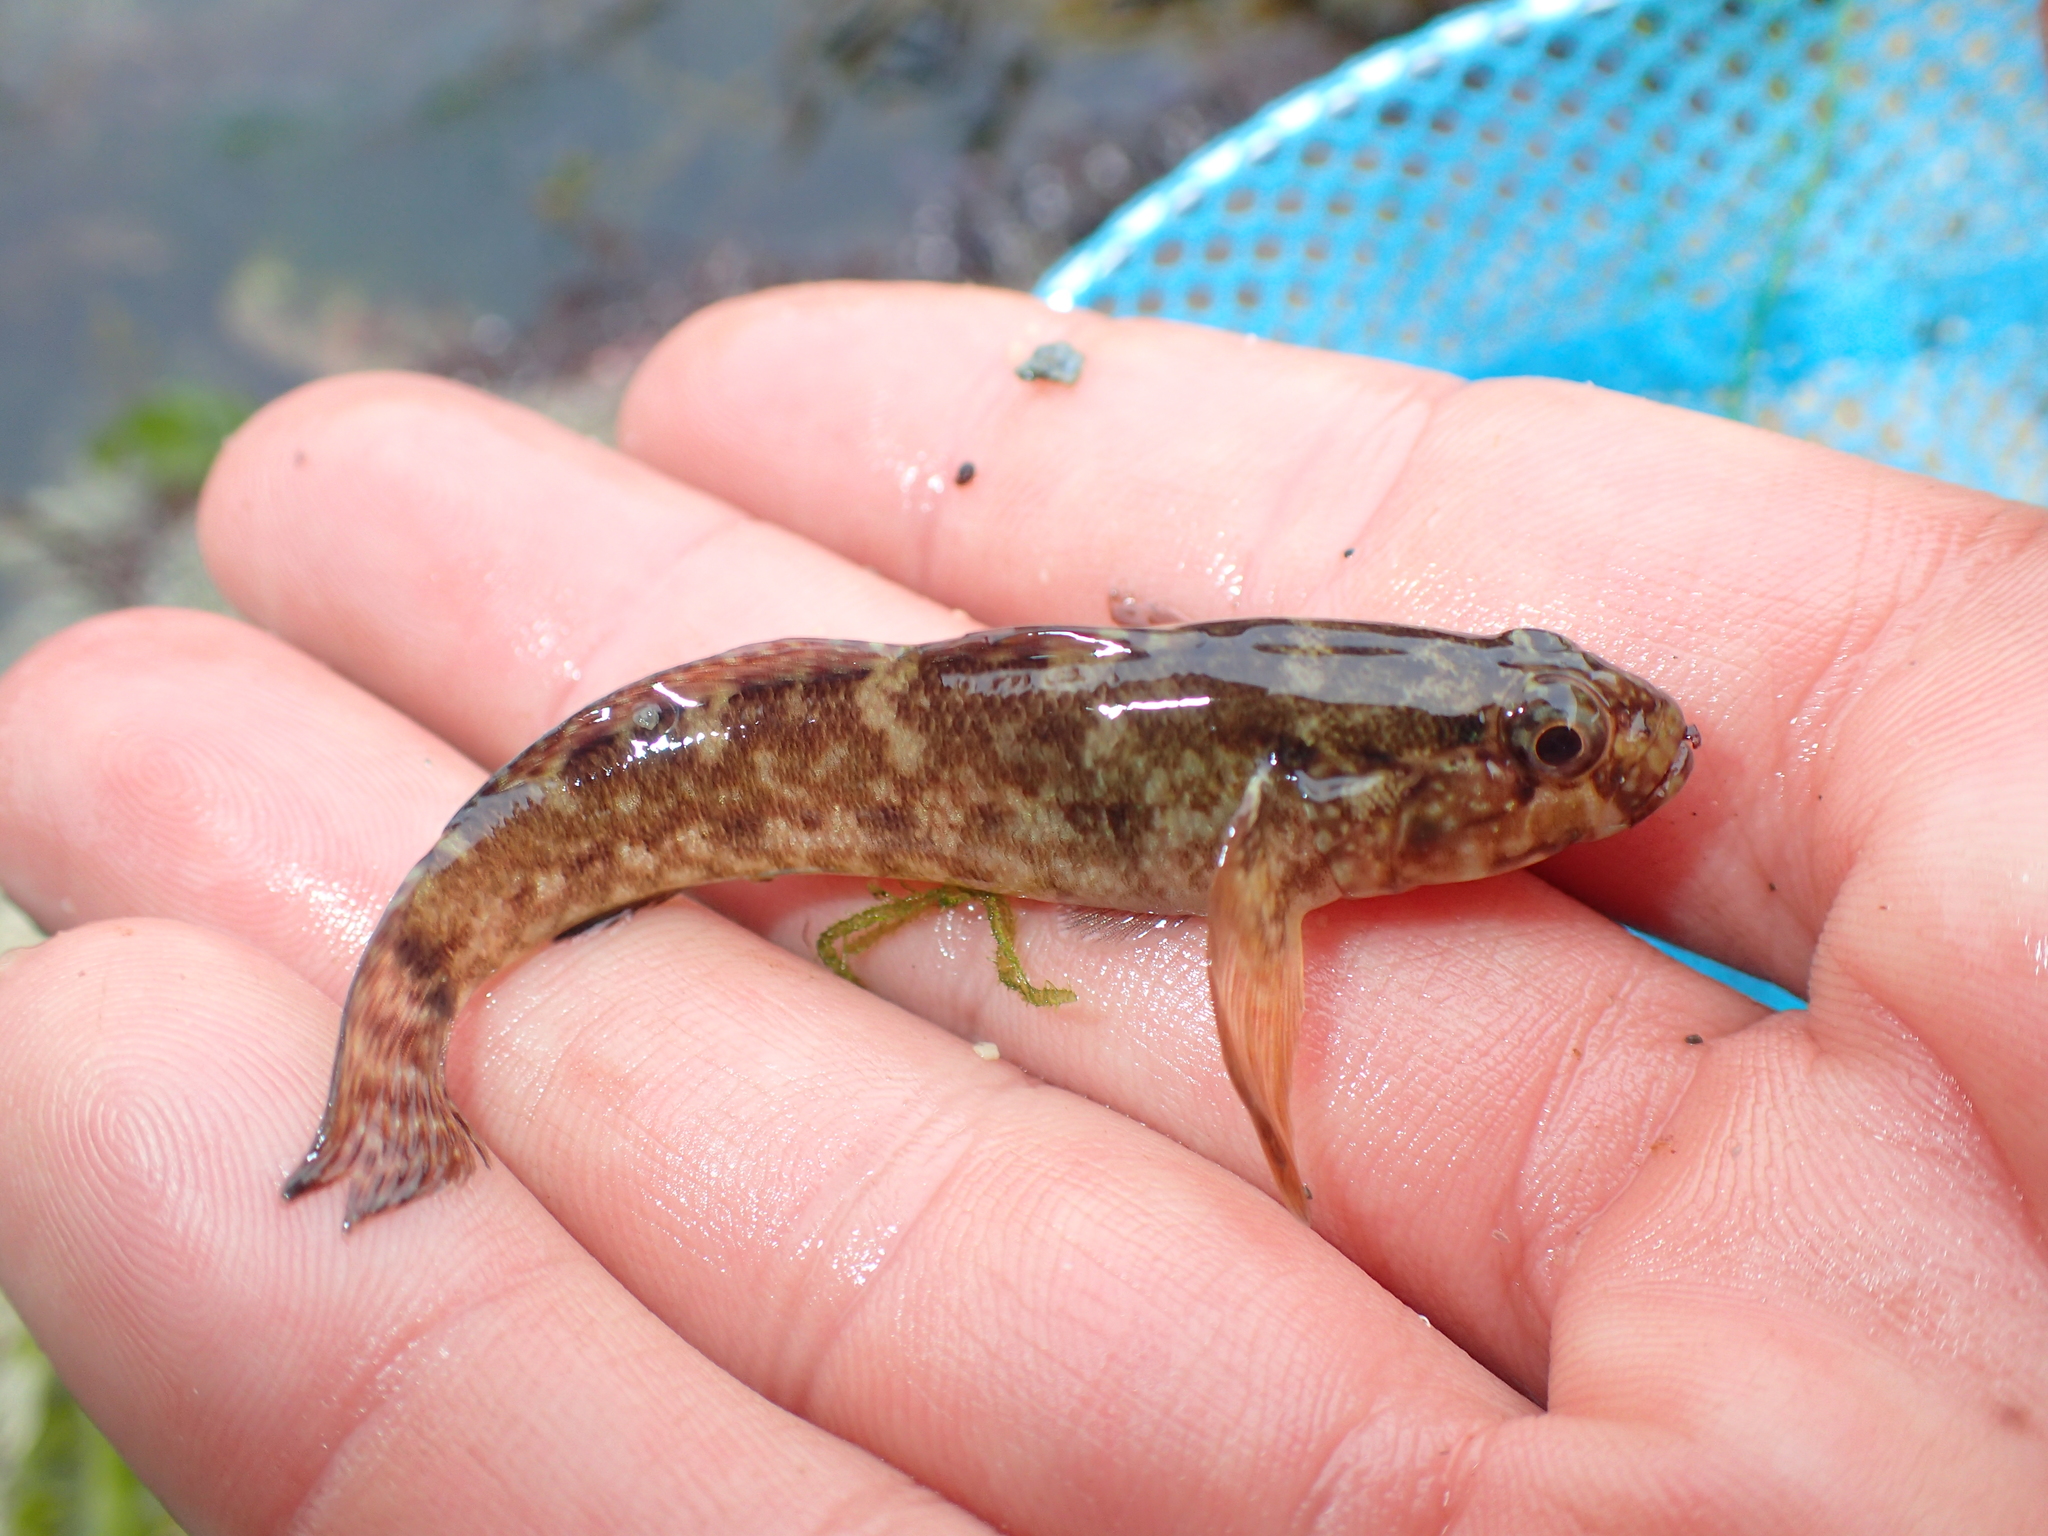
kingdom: Animalia
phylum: Chordata
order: Perciformes
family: Gobiidae
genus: Gobius
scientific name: Gobius paganellus
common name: Rock goby
